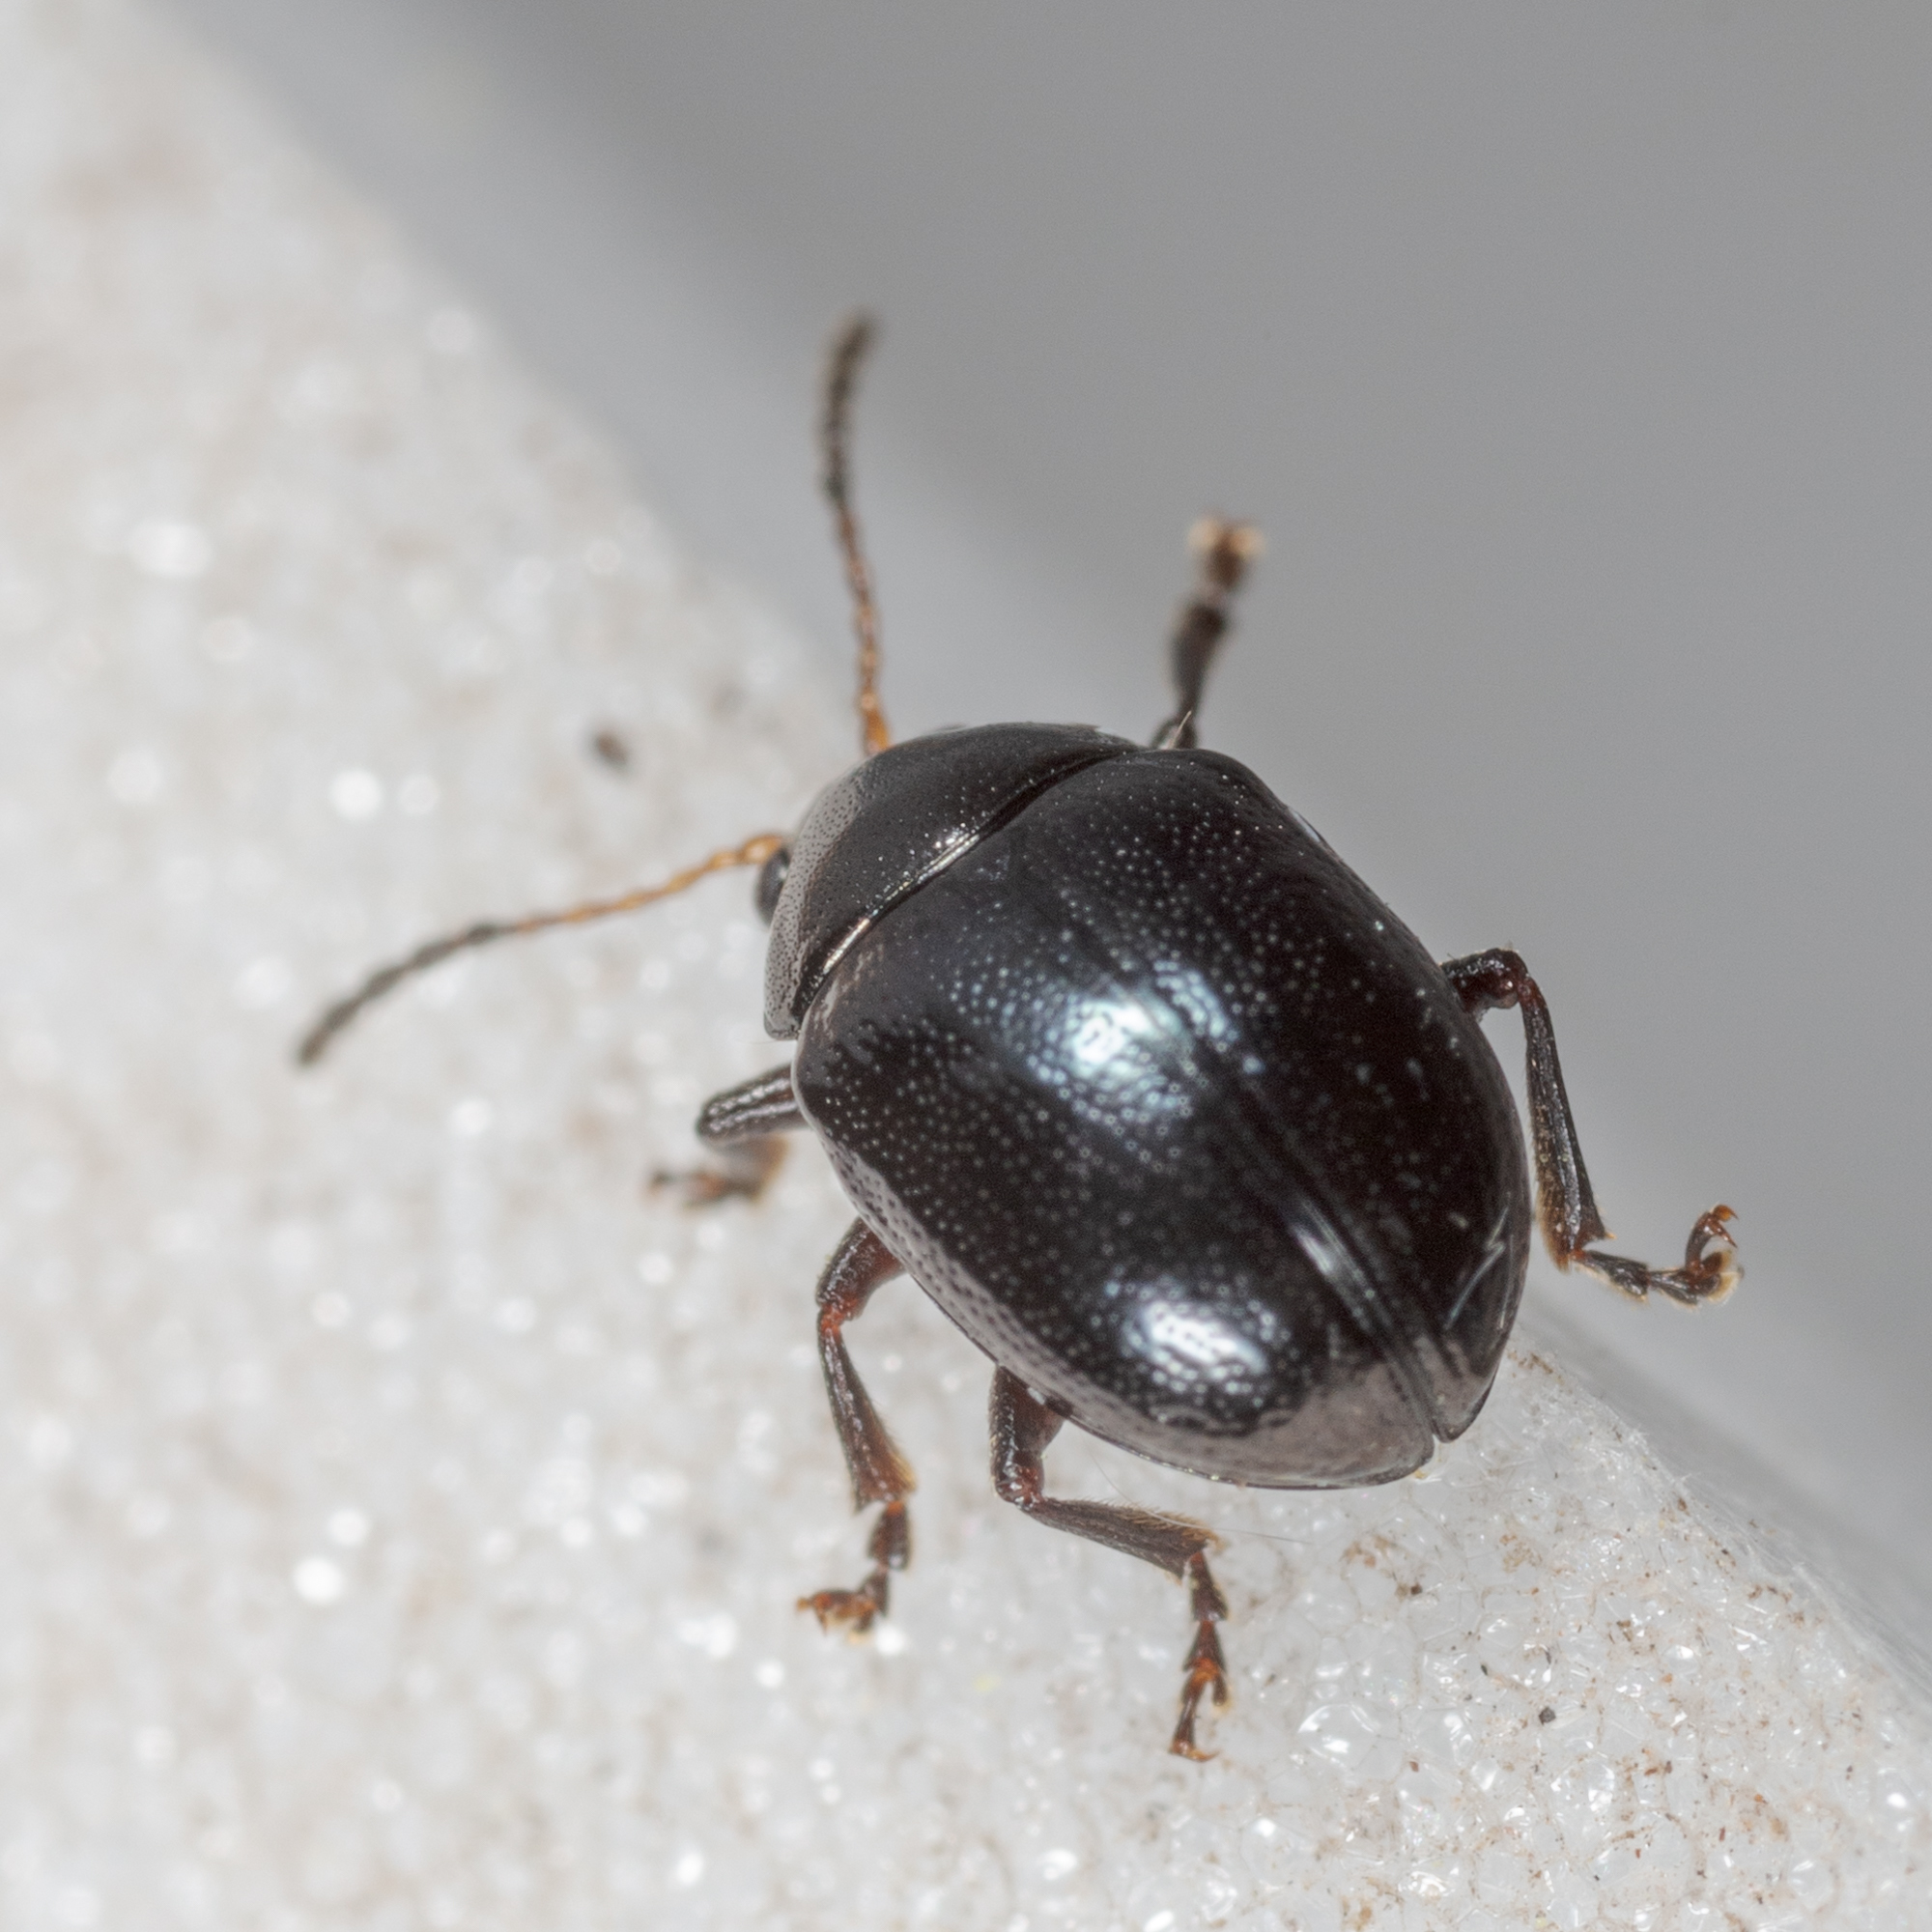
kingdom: Animalia
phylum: Arthropoda
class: Insecta
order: Coleoptera
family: Chrysomelidae
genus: Brachypnoea
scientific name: Brachypnoea lecontei
